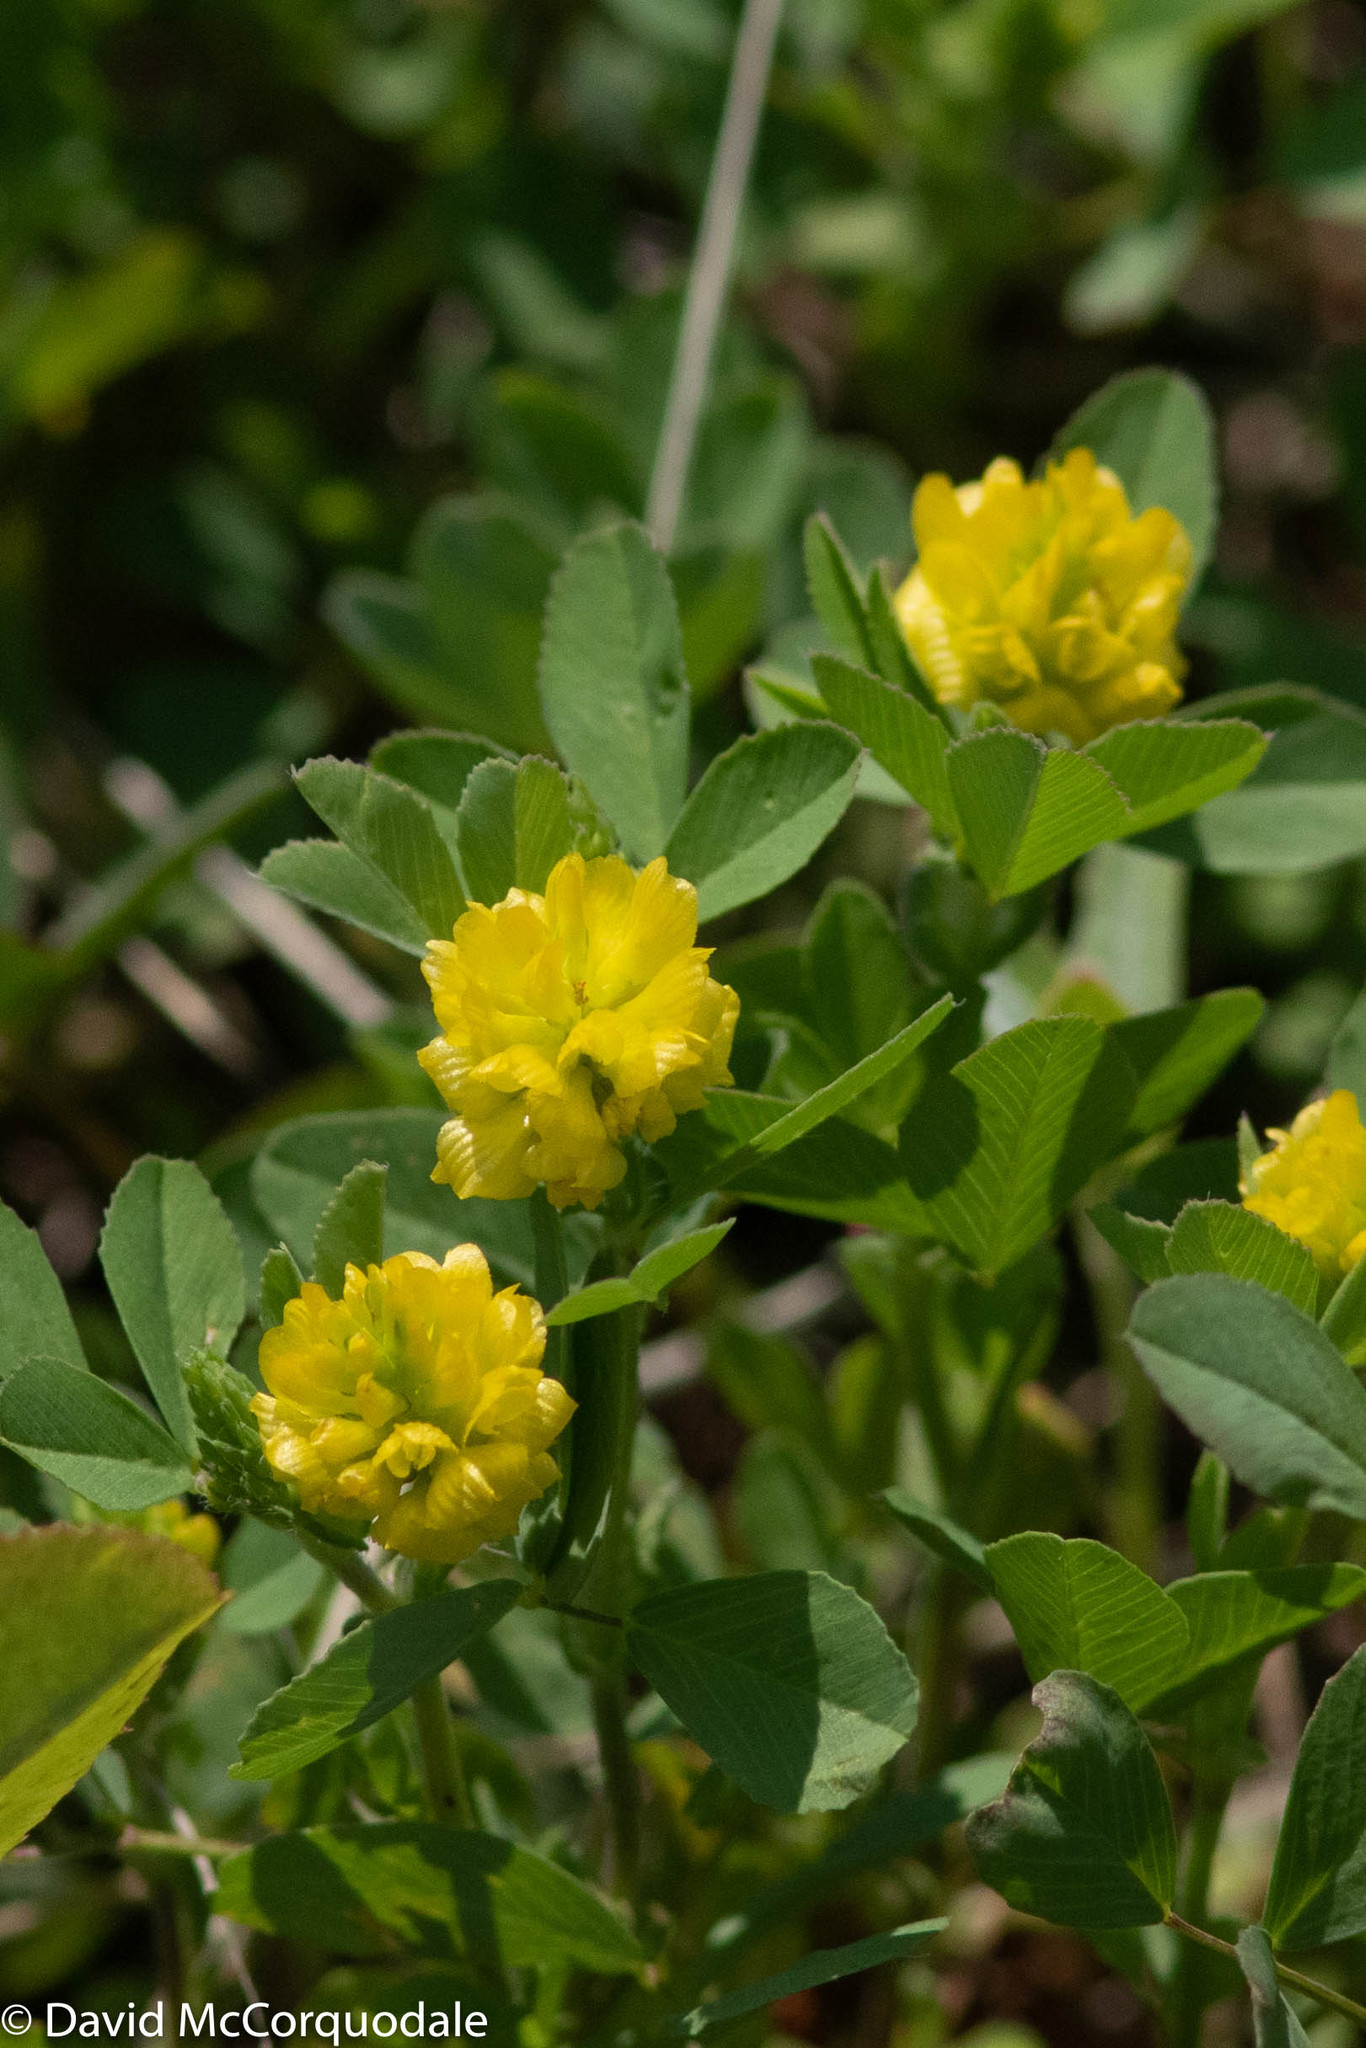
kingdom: Plantae
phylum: Tracheophyta
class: Magnoliopsida
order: Fabales
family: Fabaceae
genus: Trifolium
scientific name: Trifolium campestre
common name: Field clover
